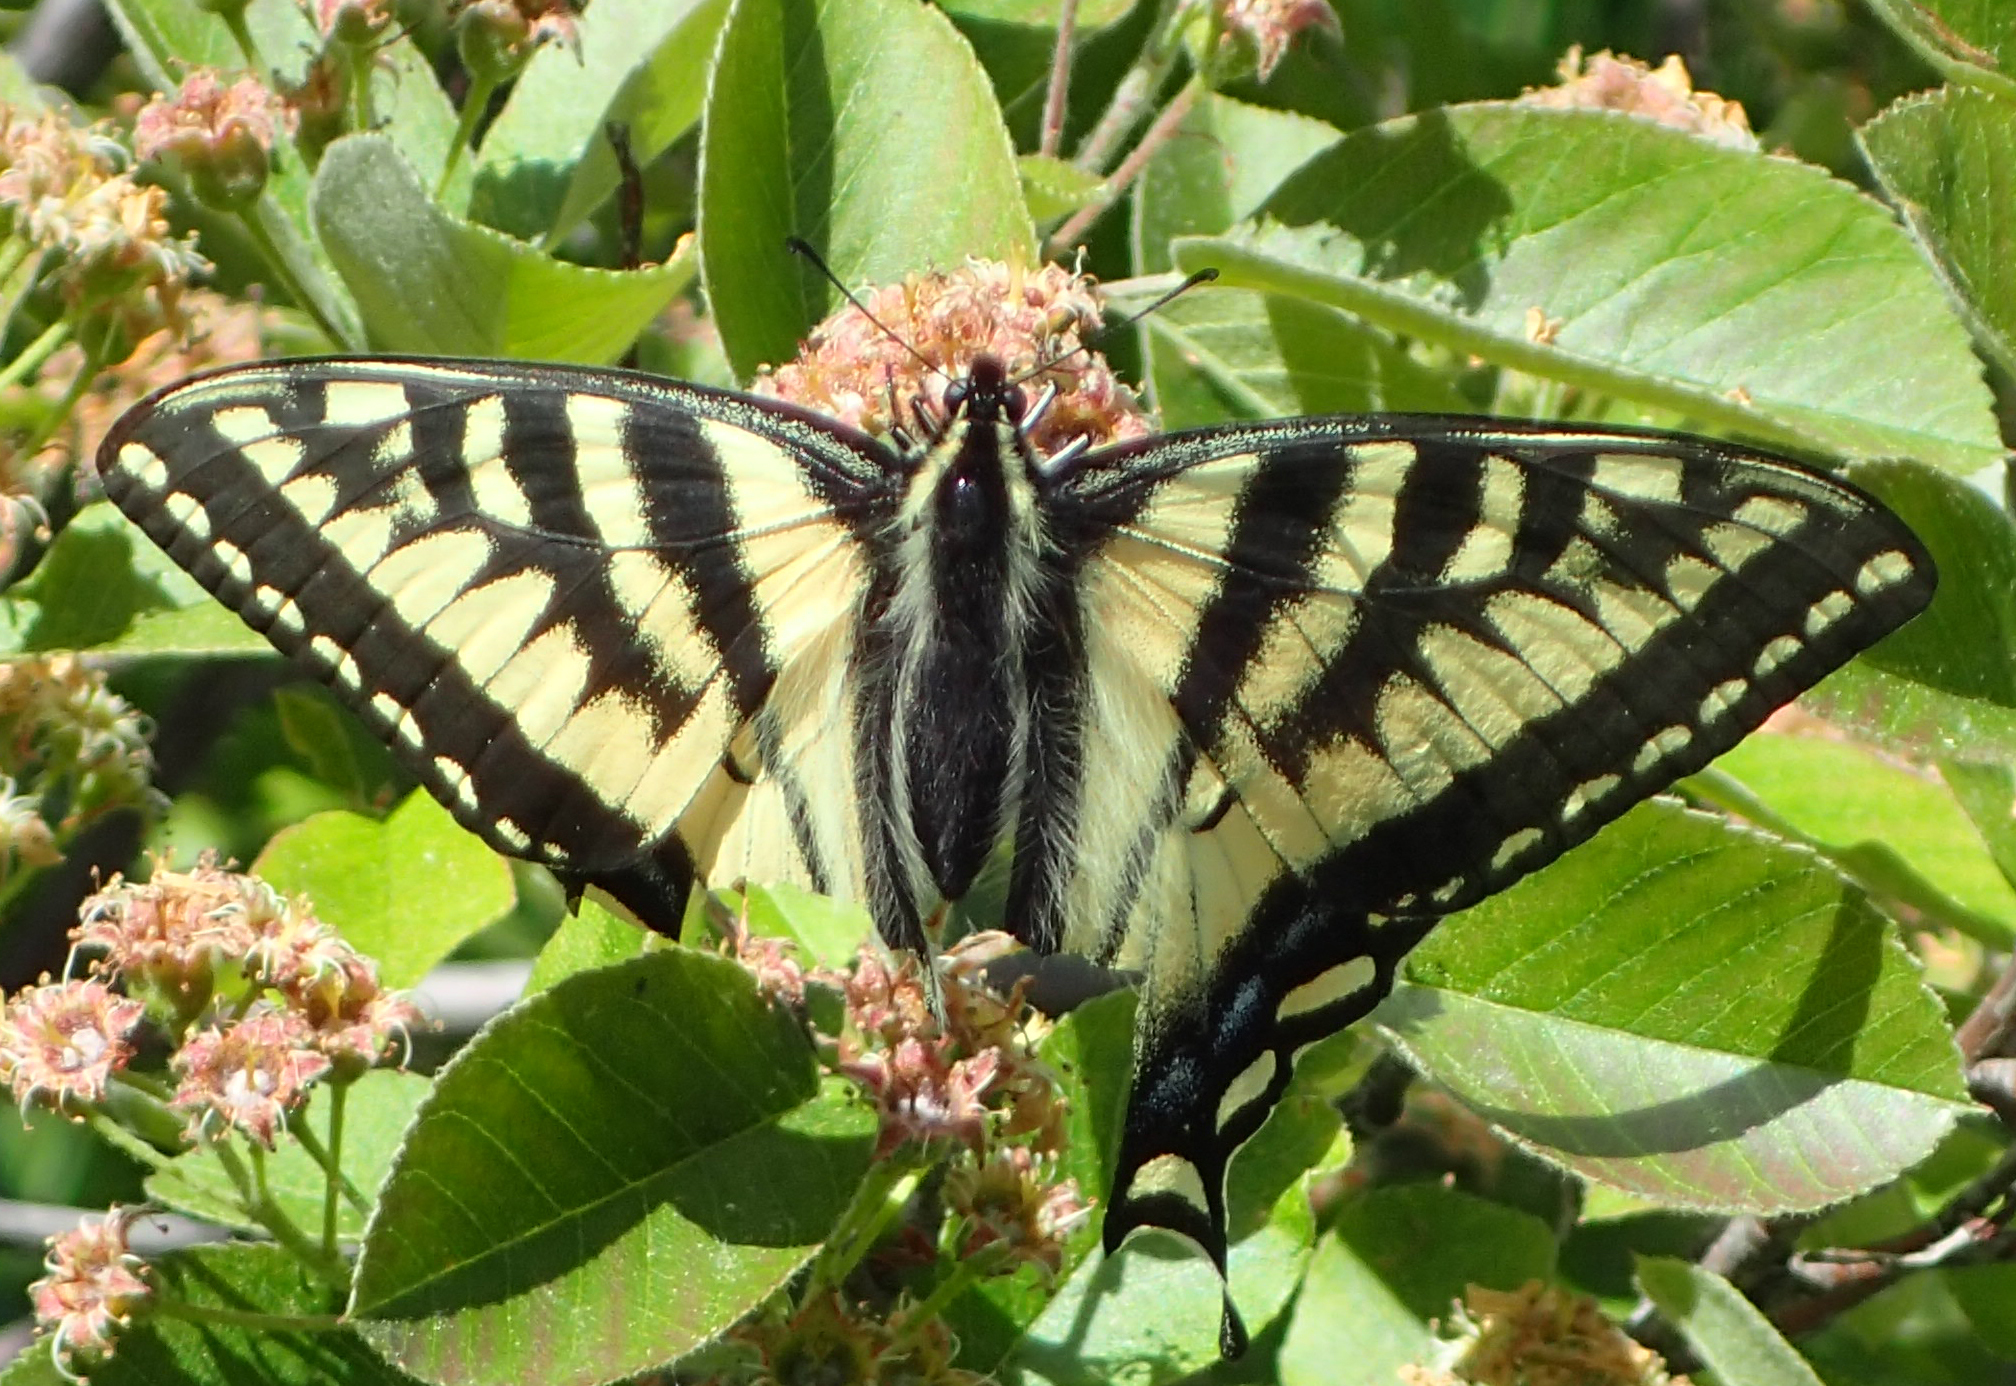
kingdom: Animalia
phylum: Arthropoda
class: Insecta
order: Lepidoptera
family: Papilionidae
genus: Papilio
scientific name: Papilio canadensis
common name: Canadian tiger swallowtail
